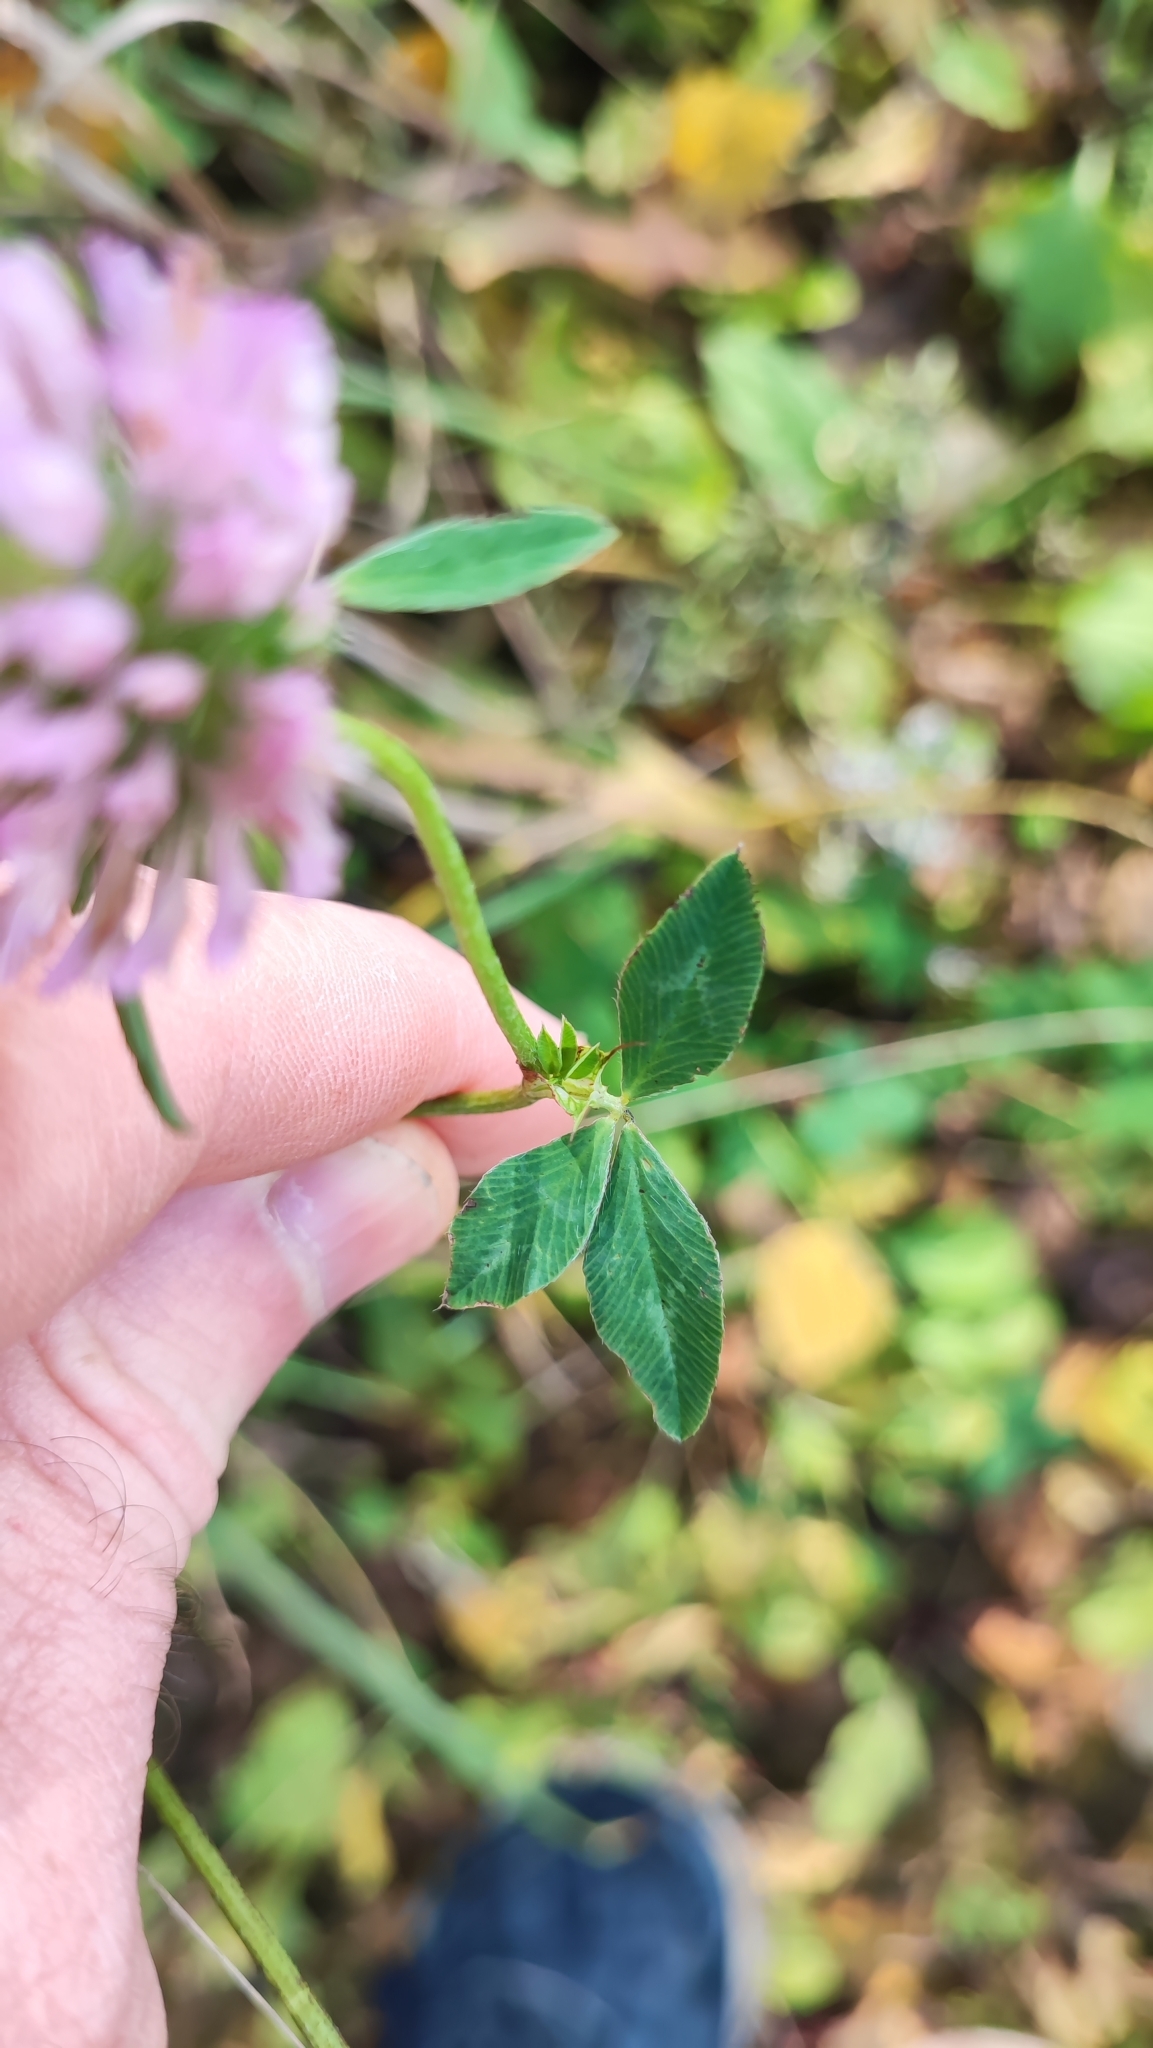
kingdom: Plantae
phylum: Tracheophyta
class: Magnoliopsida
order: Fabales
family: Fabaceae
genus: Trifolium
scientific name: Trifolium pratense
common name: Red clover
